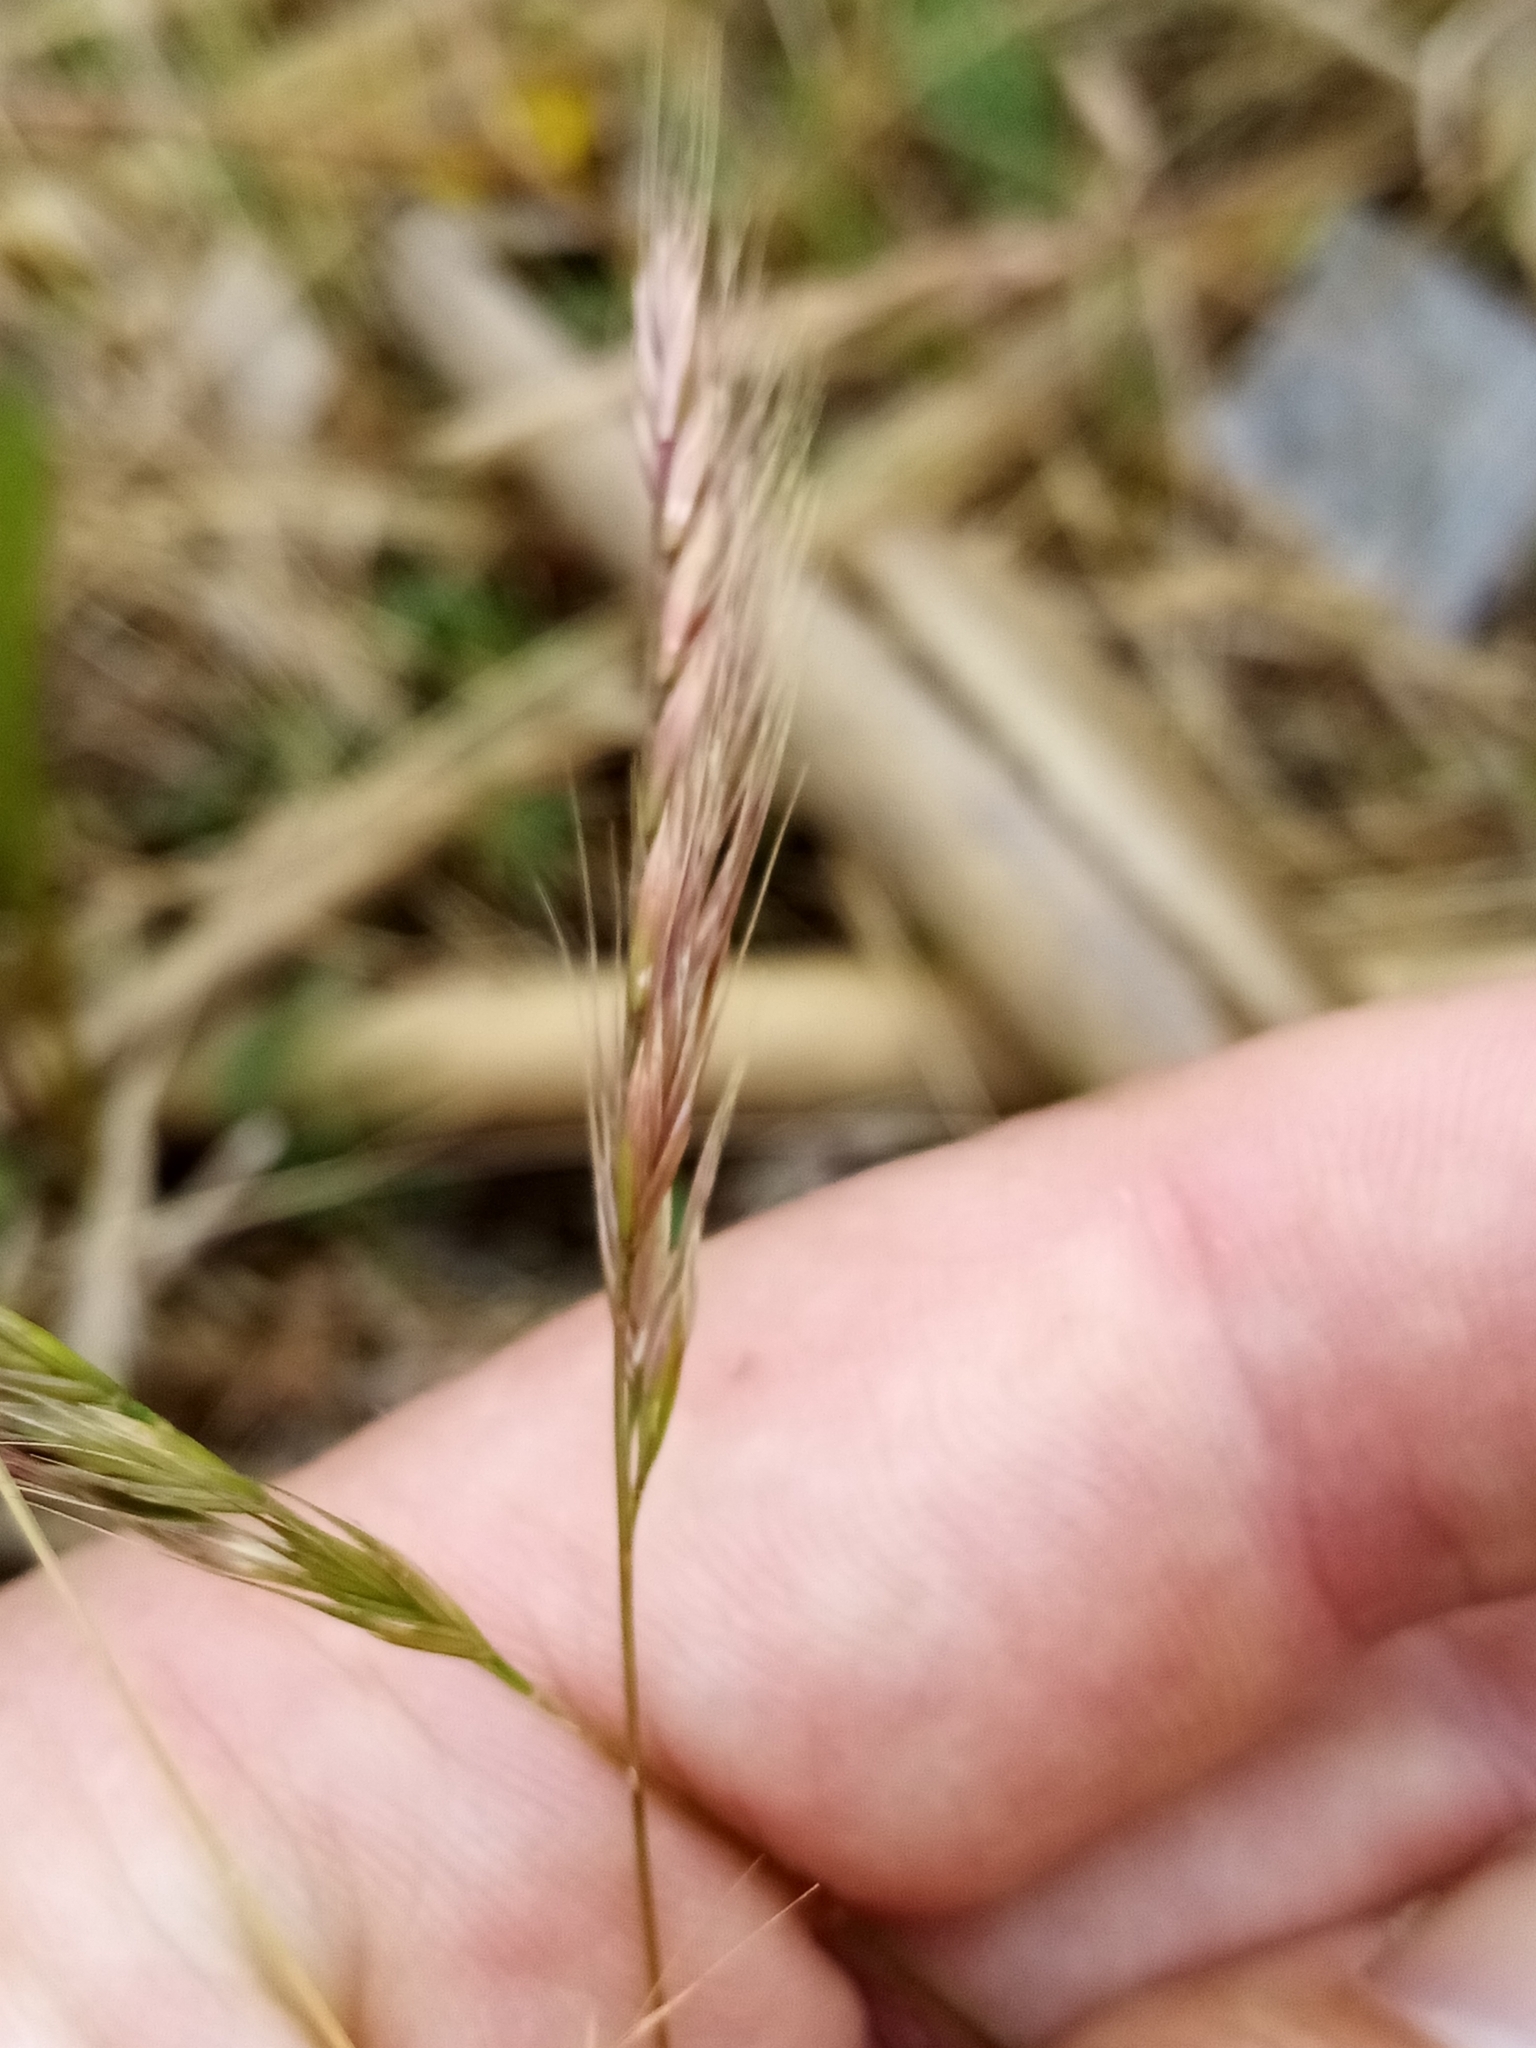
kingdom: Plantae
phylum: Tracheophyta
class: Liliopsida
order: Poales
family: Poaceae
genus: Festuca
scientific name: Festuca bromoides
